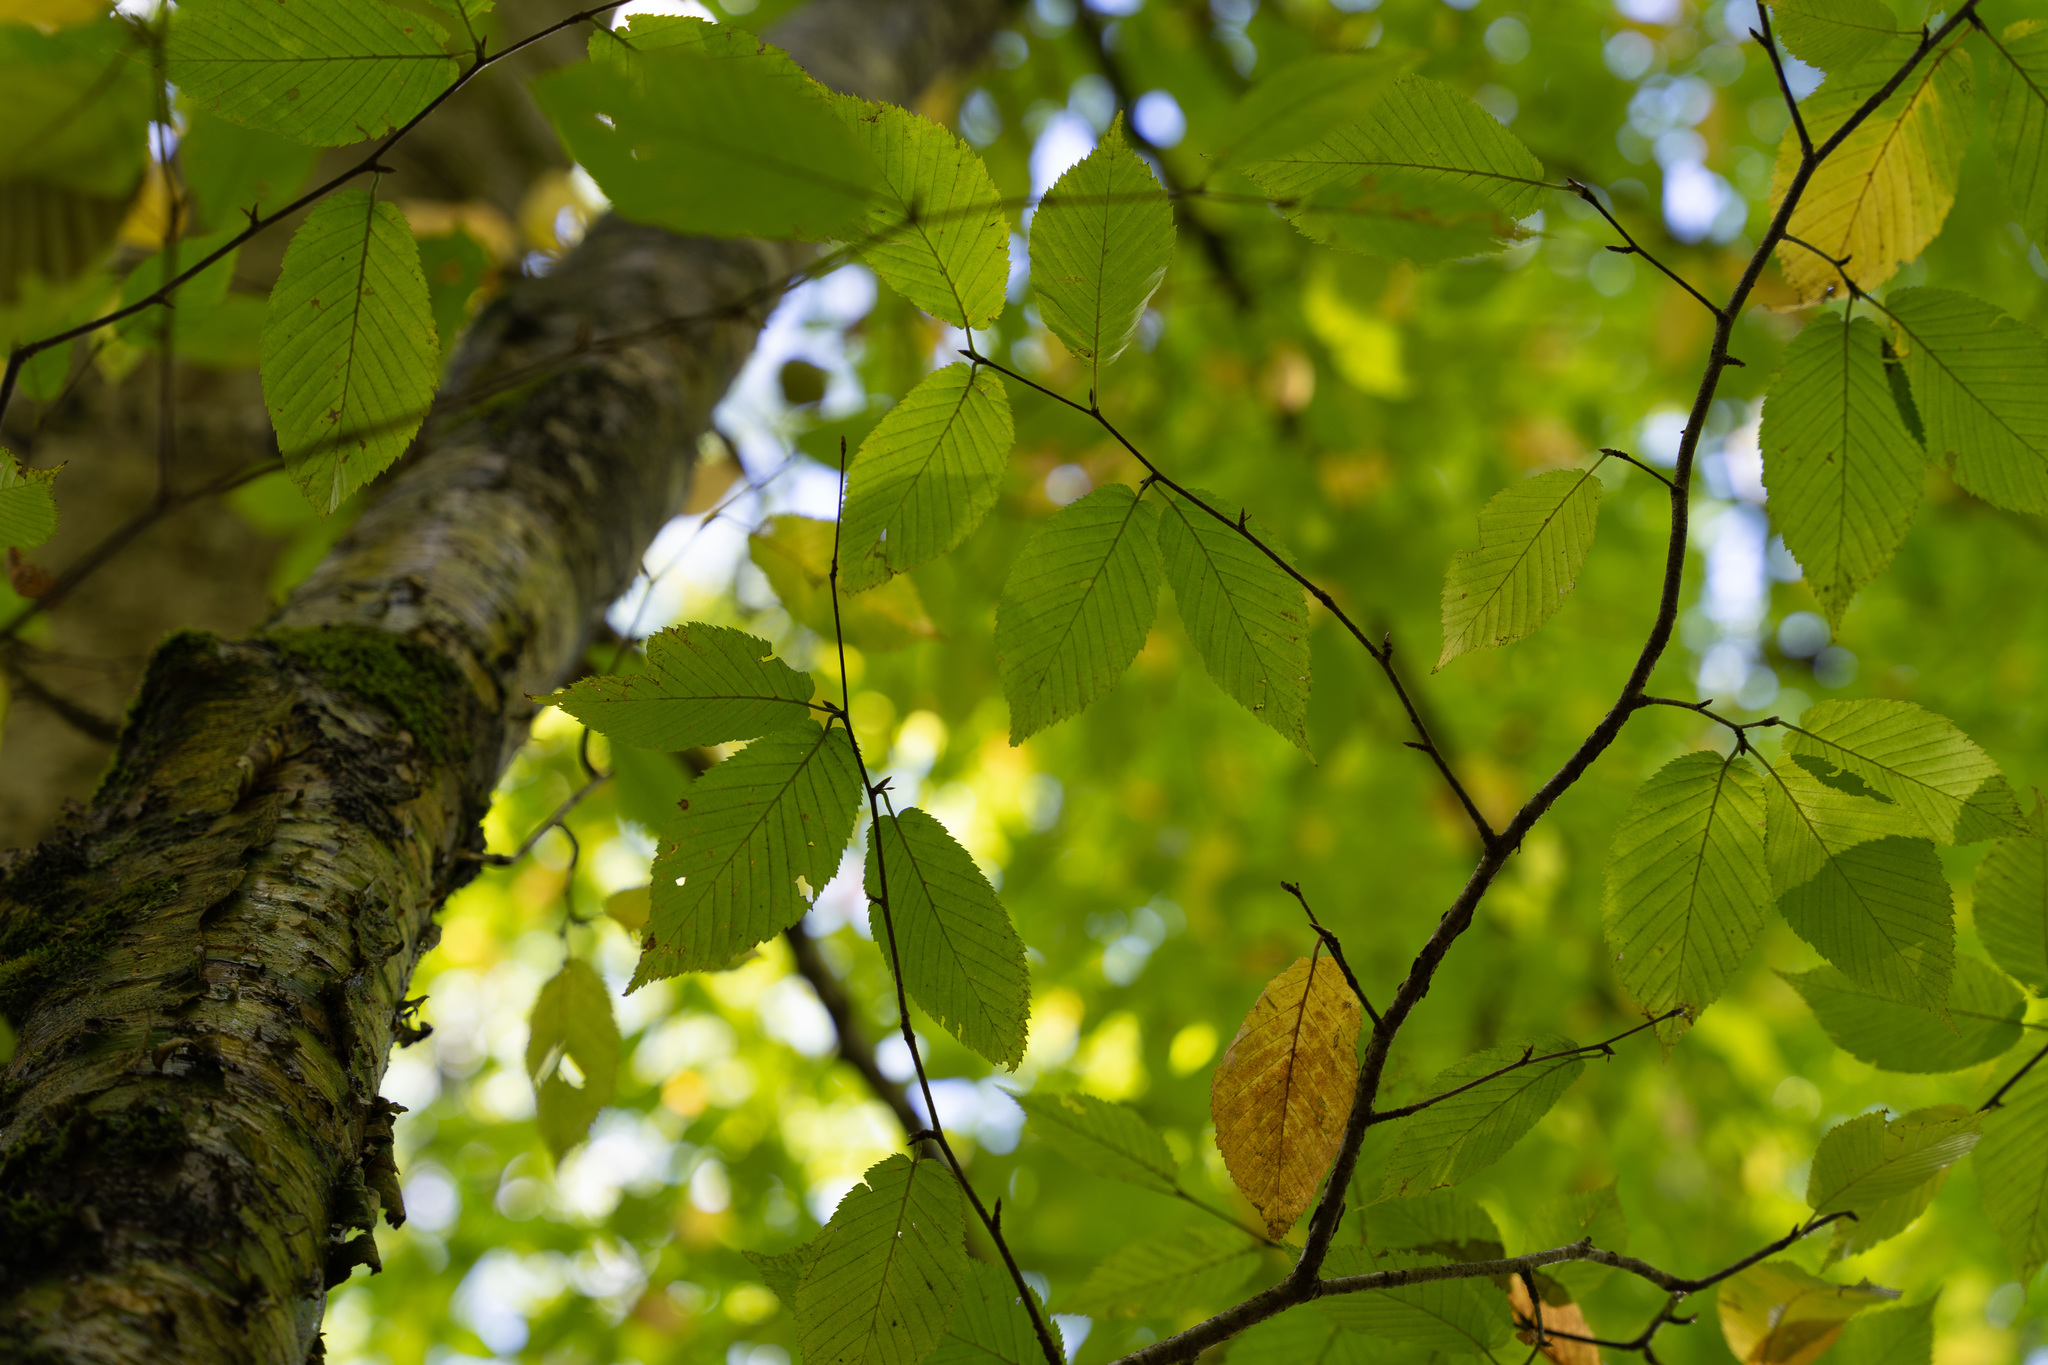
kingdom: Plantae
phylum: Tracheophyta
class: Magnoliopsida
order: Fagales
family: Betulaceae
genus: Betula
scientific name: Betula alleghaniensis
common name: Yellow birch
